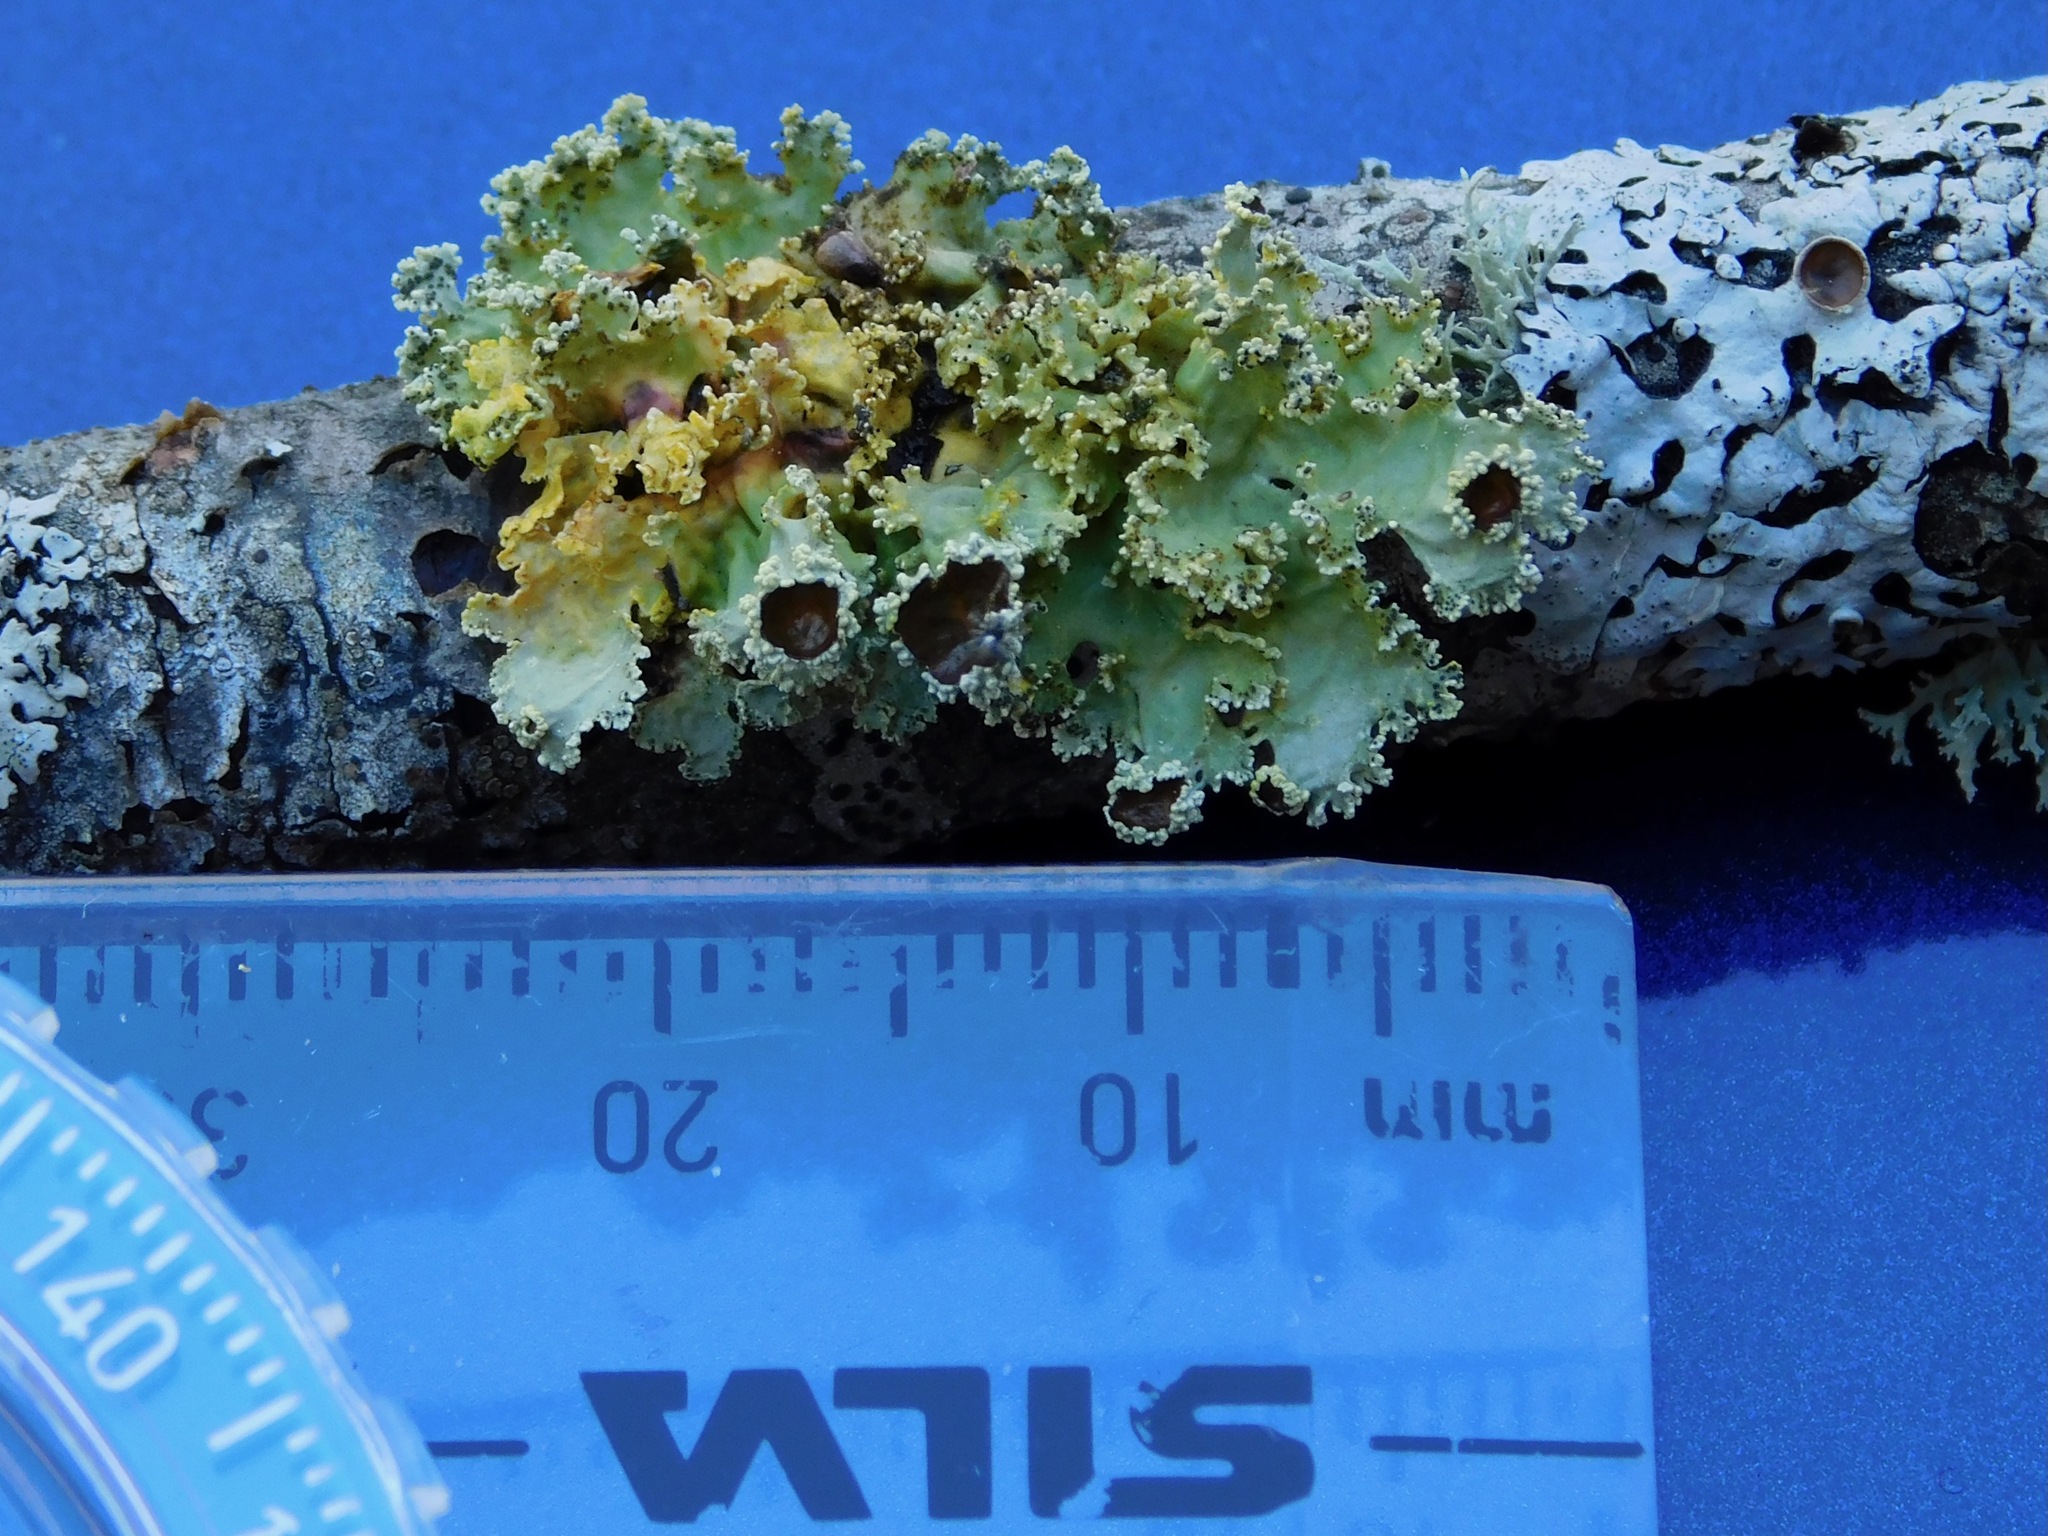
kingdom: Fungi
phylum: Ascomycota
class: Lecanoromycetes
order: Lecanorales
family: Parmeliaceae
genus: Vulpicida
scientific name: Vulpicida viridis
